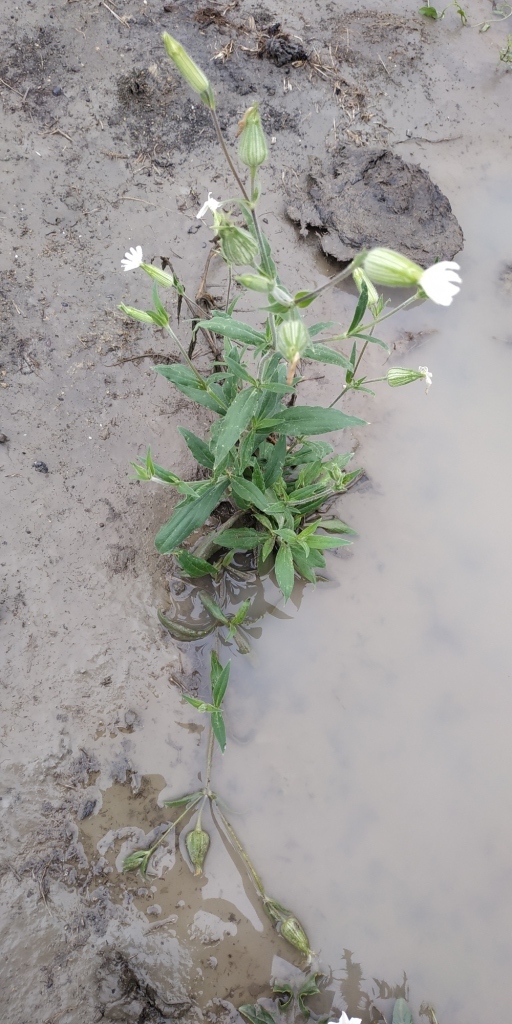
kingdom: Plantae
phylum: Tracheophyta
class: Magnoliopsida
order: Caryophyllales
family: Caryophyllaceae
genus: Silene
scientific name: Silene latifolia
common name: White campion
